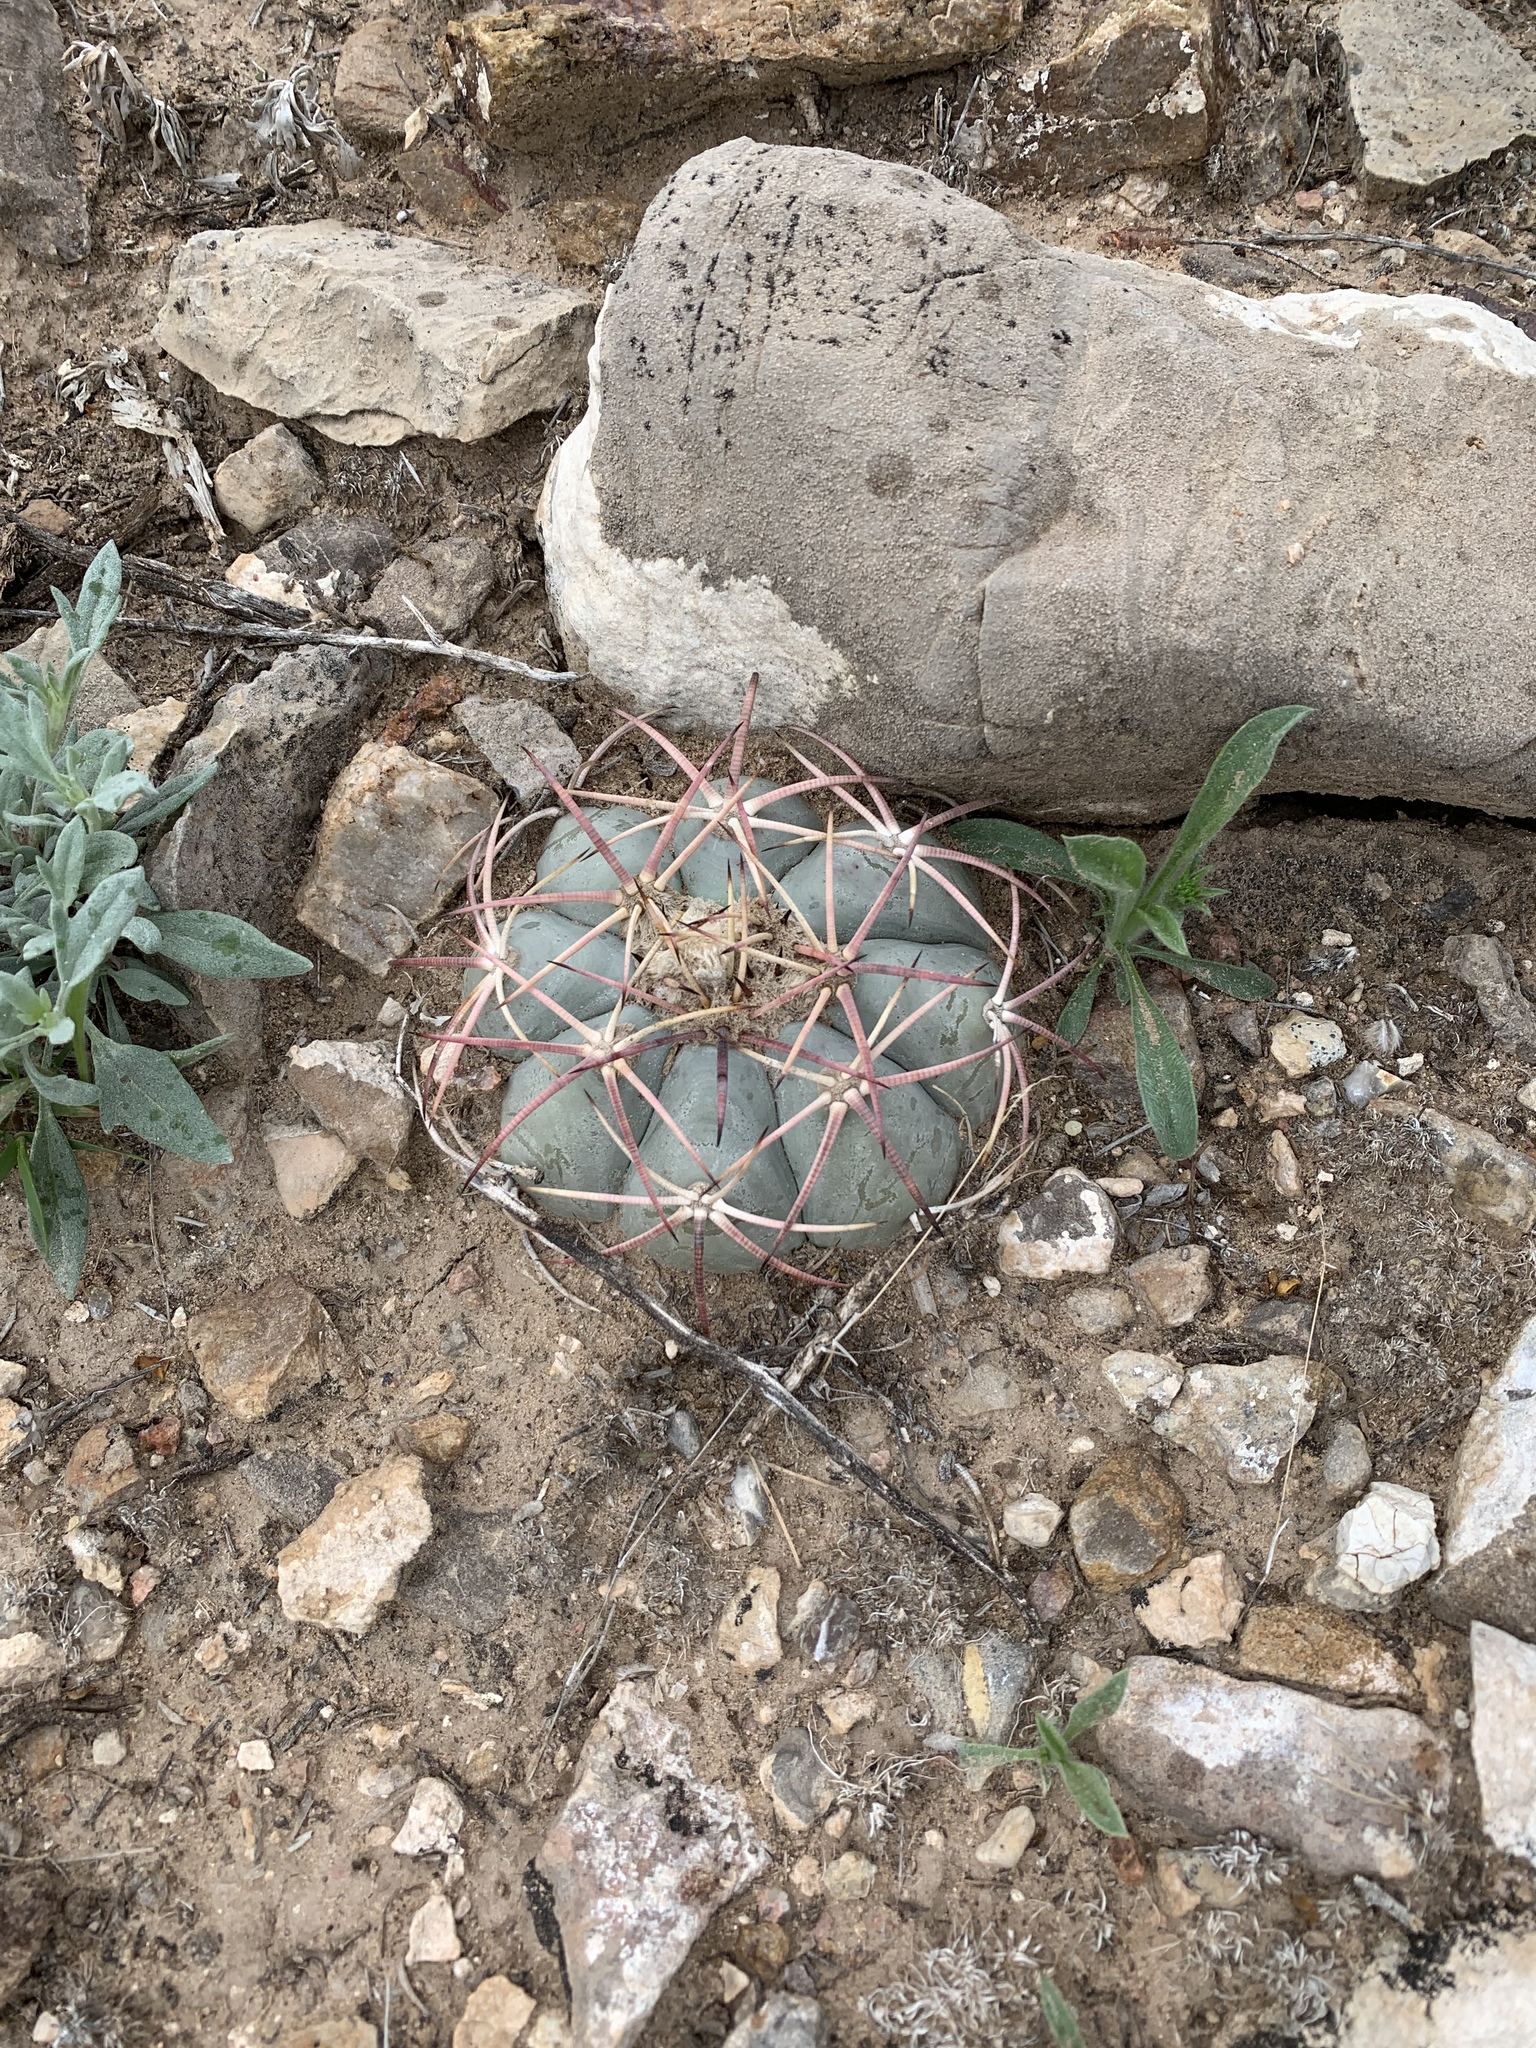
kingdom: Plantae
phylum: Tracheophyta
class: Magnoliopsida
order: Caryophyllales
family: Cactaceae
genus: Echinocactus
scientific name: Echinocactus horizonthalonius
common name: Devilshead
